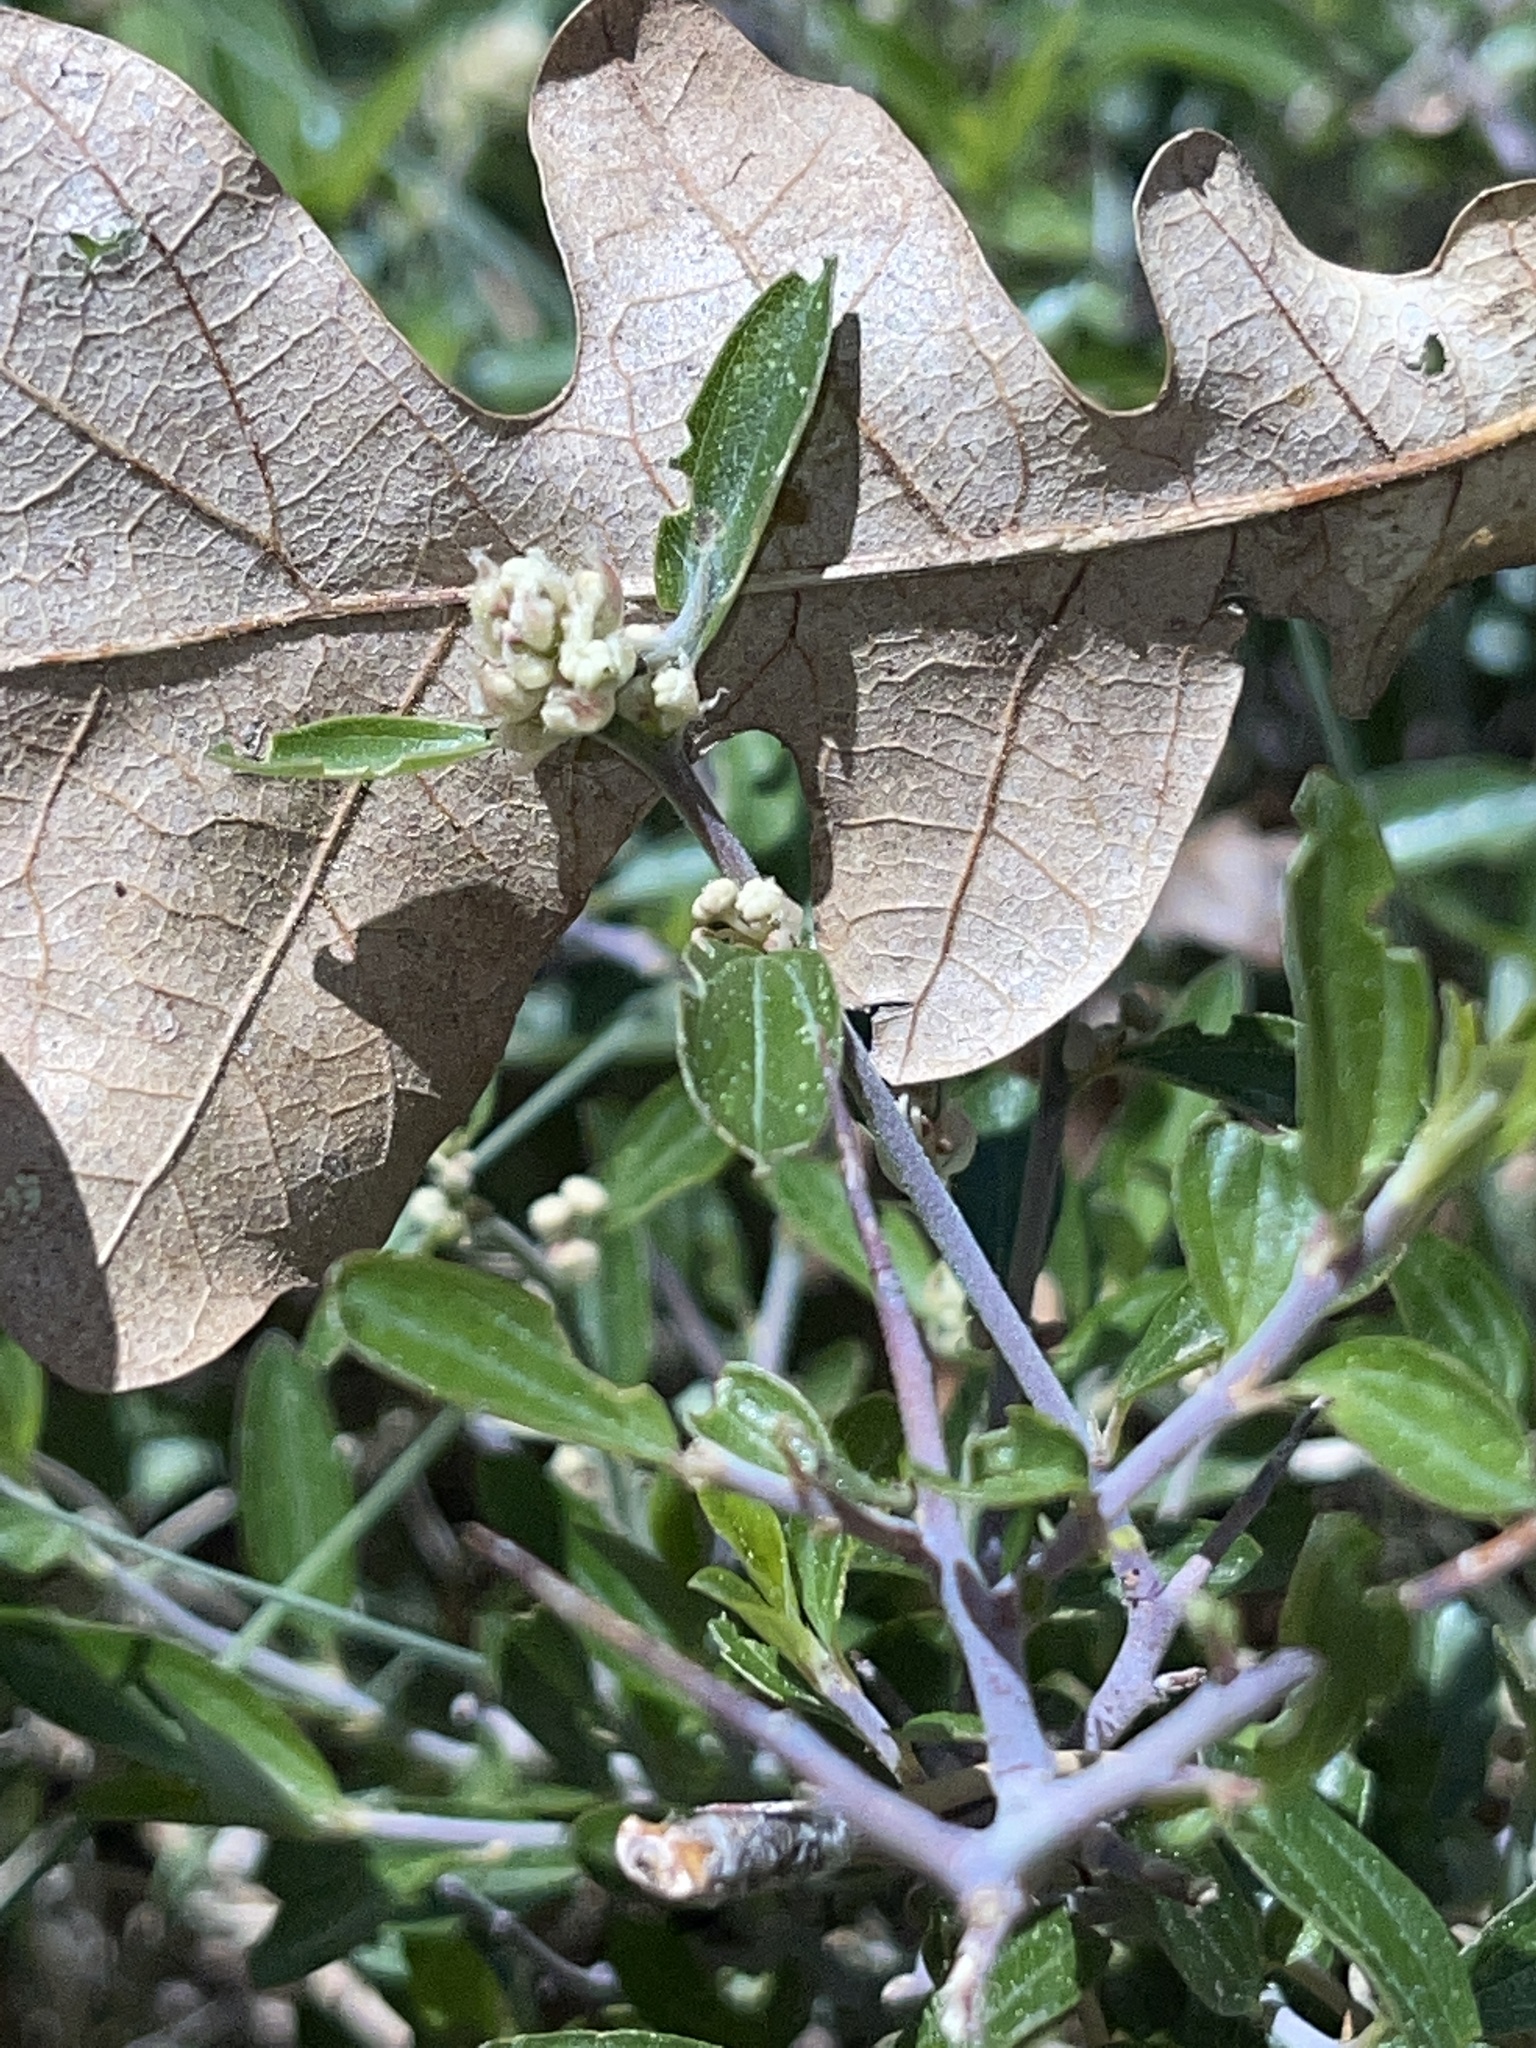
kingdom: Plantae
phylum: Tracheophyta
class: Magnoliopsida
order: Rosales
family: Rhamnaceae
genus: Ceanothus
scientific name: Ceanothus fendleri
